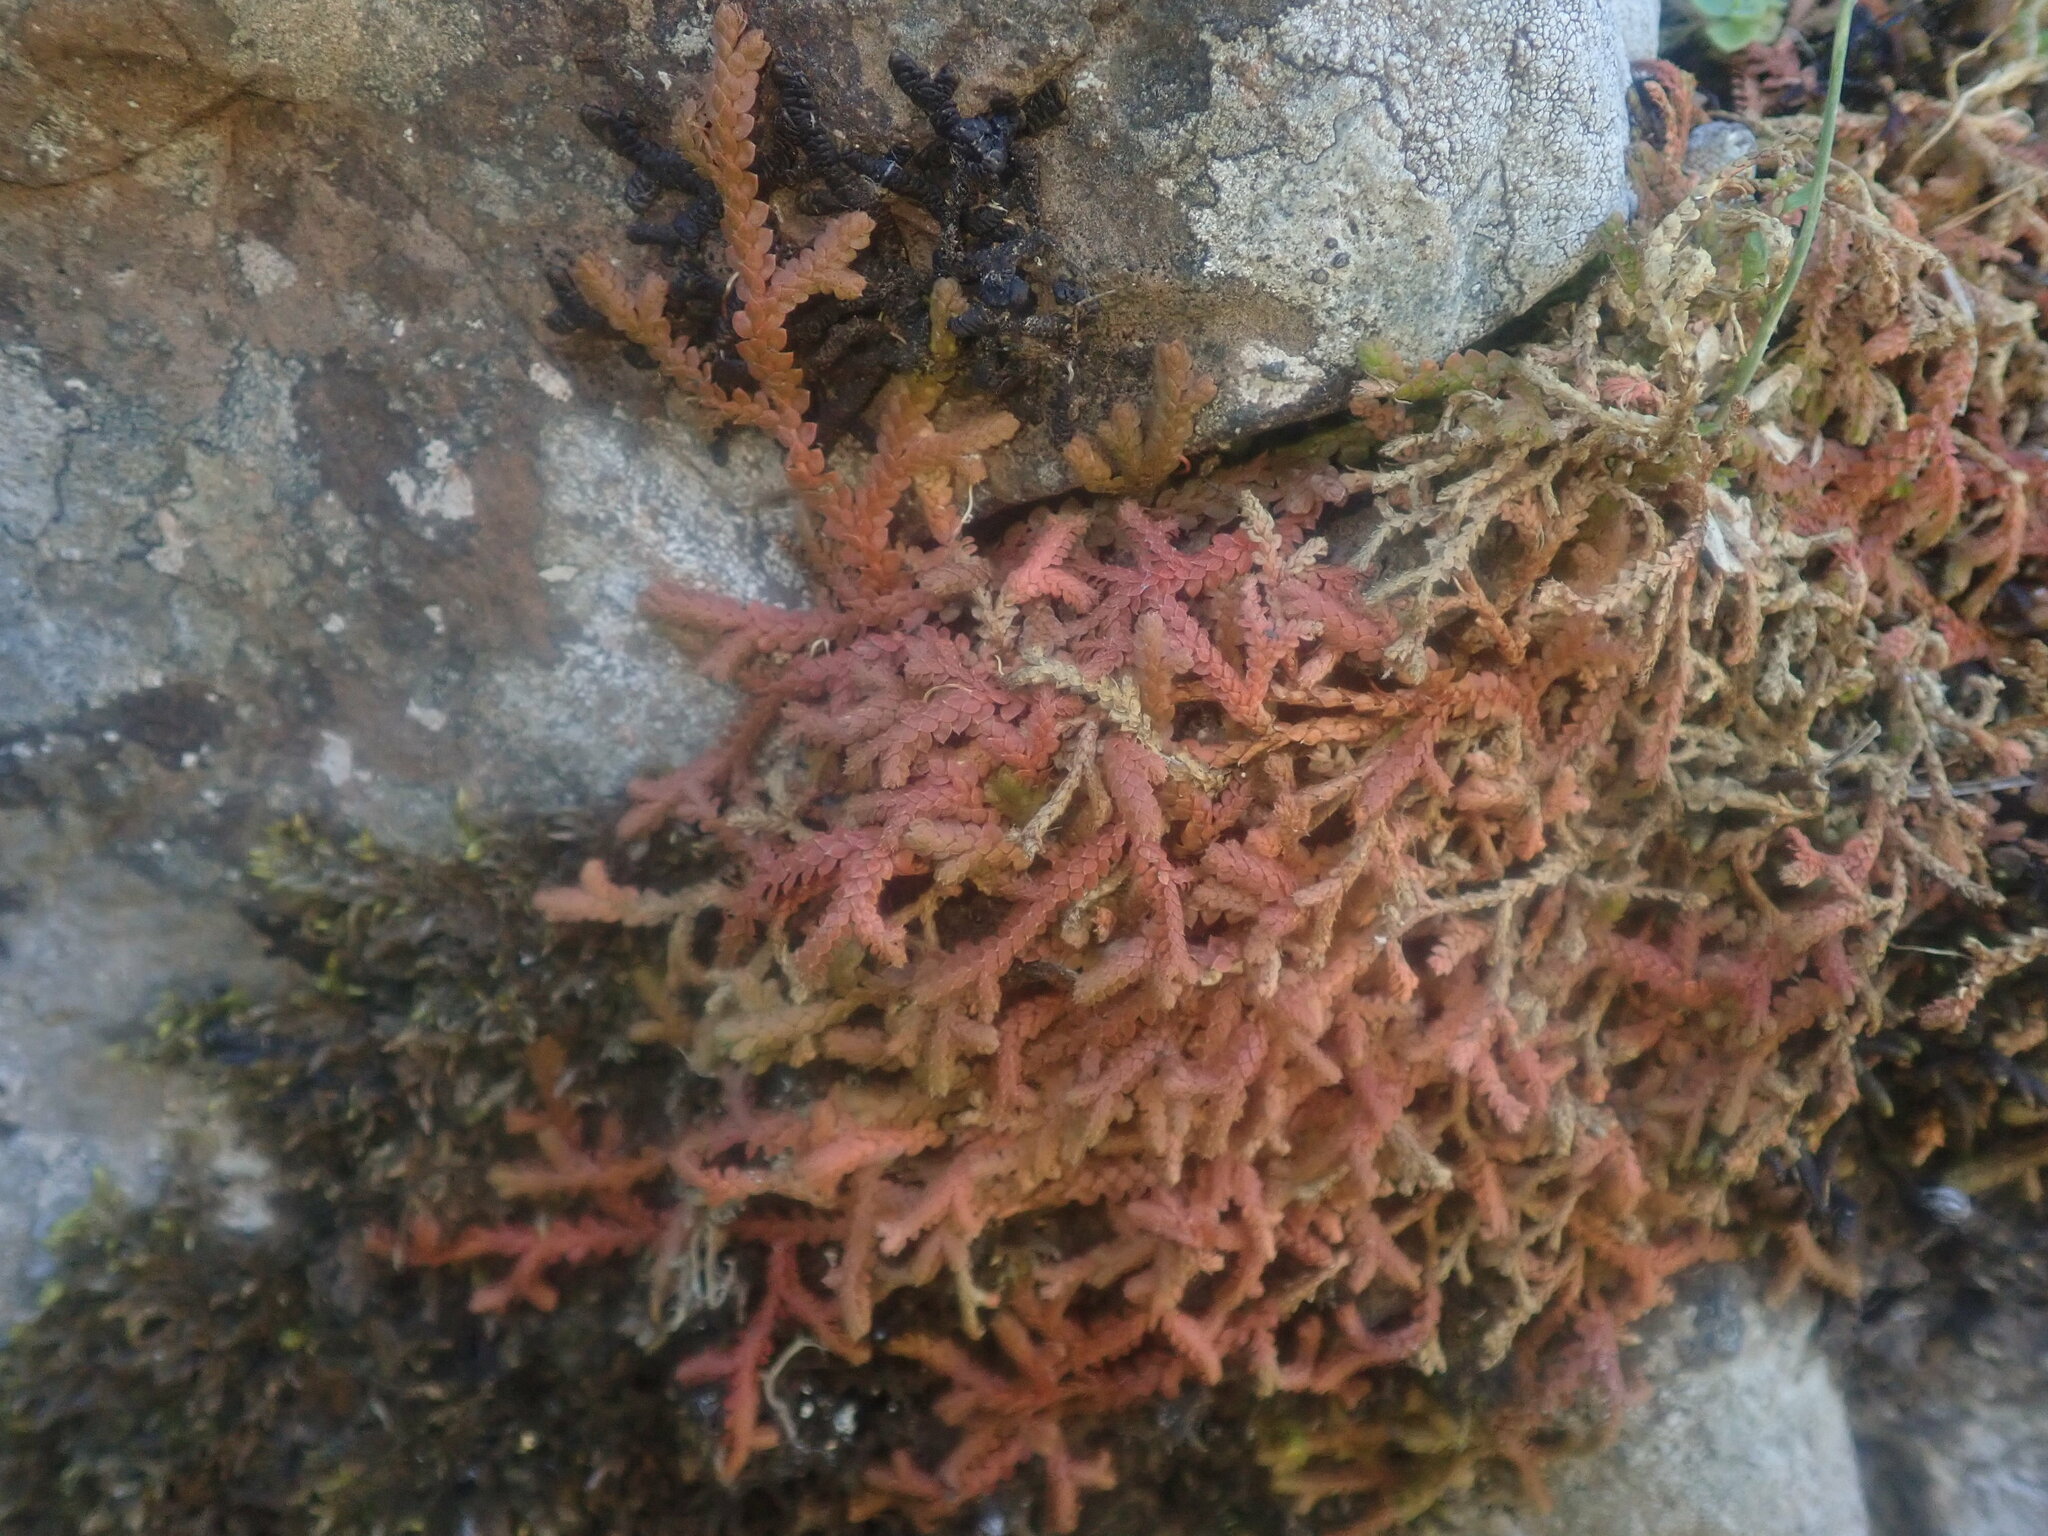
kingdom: Plantae
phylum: Tracheophyta
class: Lycopodiopsida
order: Selaginellales
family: Selaginellaceae
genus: Selaginella
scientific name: Selaginella denticulata
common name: Toothed-leaved clubmoss
